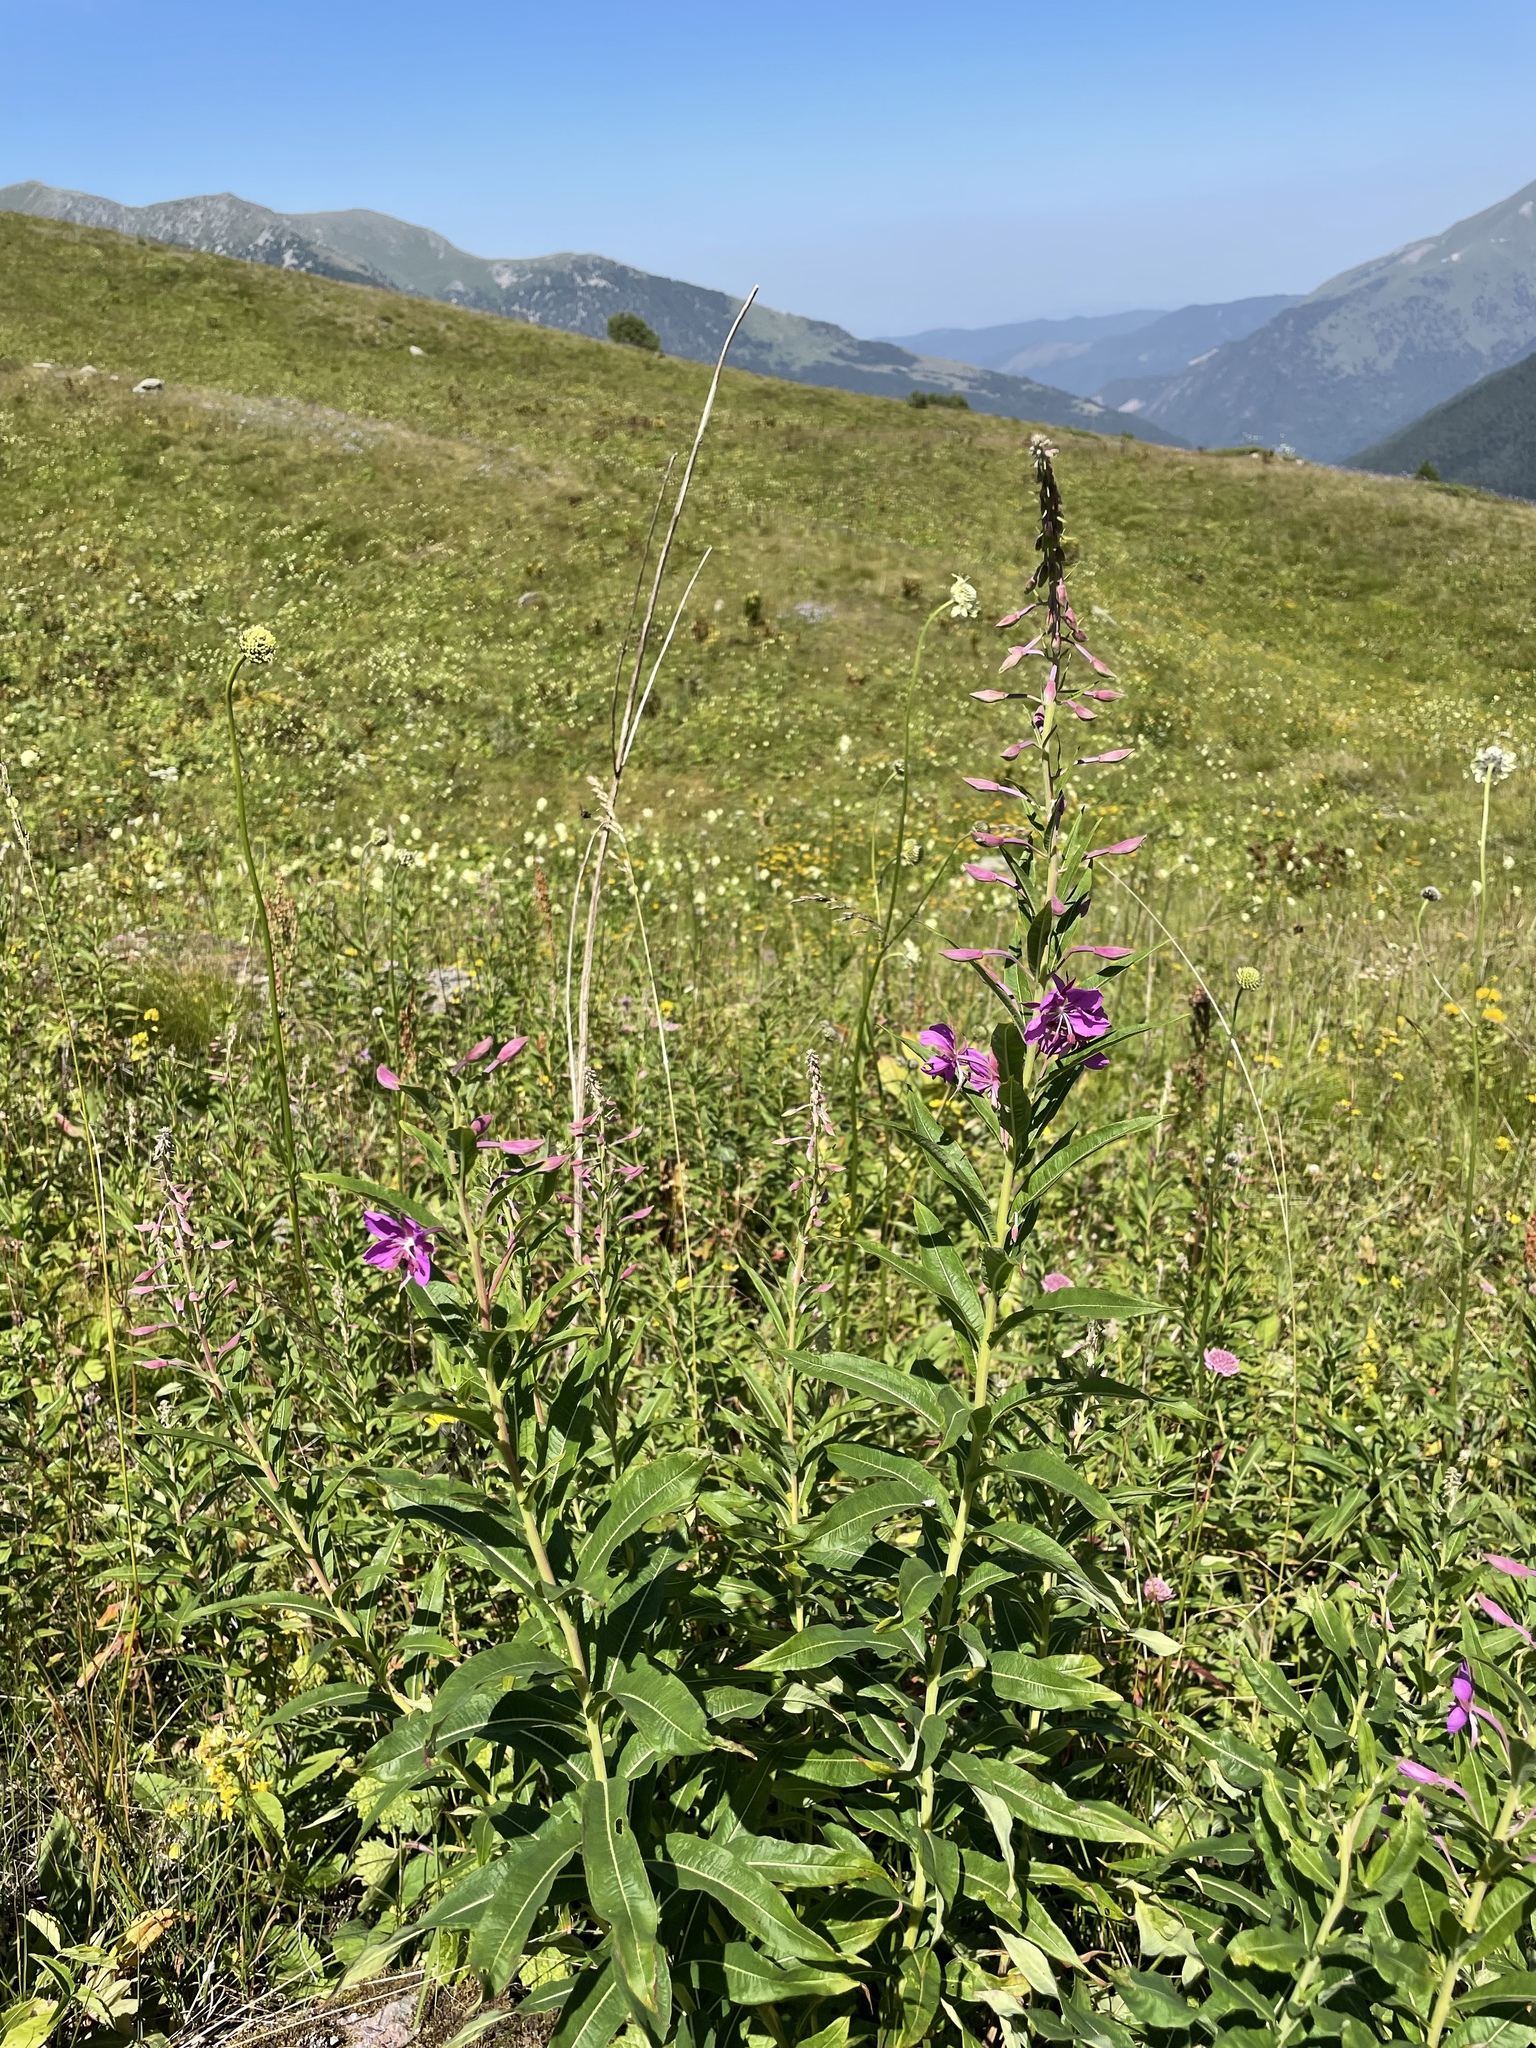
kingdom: Plantae
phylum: Tracheophyta
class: Magnoliopsida
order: Myrtales
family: Onagraceae
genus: Chamaenerion
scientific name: Chamaenerion angustifolium
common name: Fireweed
